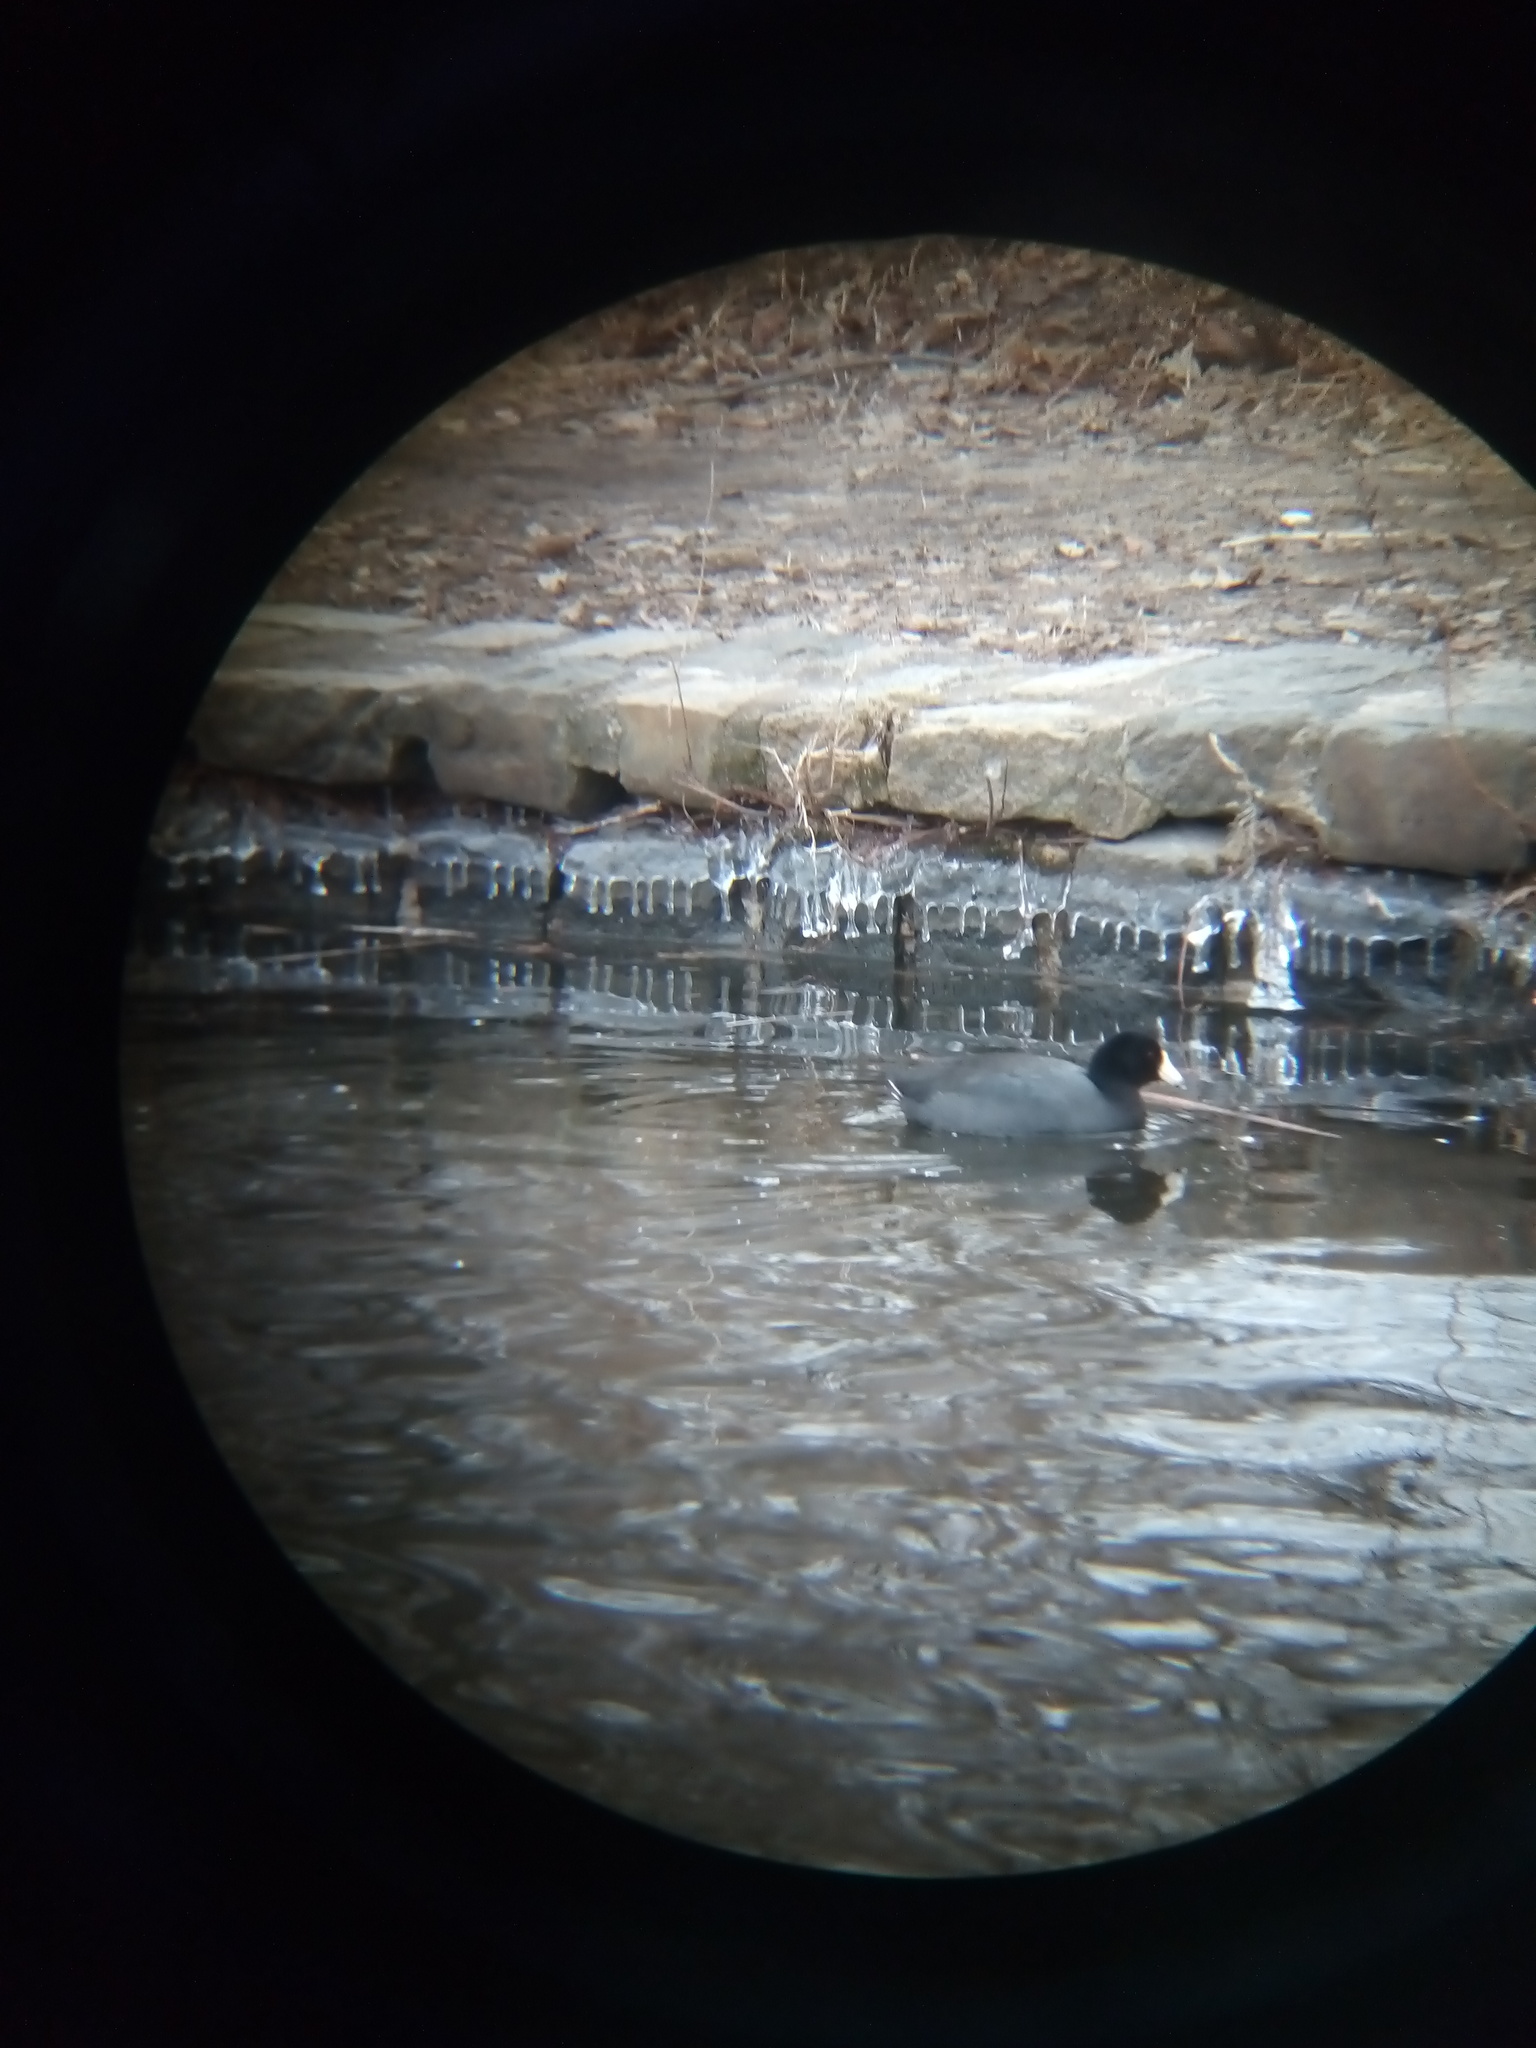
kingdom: Animalia
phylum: Chordata
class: Aves
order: Gruiformes
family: Rallidae
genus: Fulica
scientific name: Fulica americana
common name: American coot
